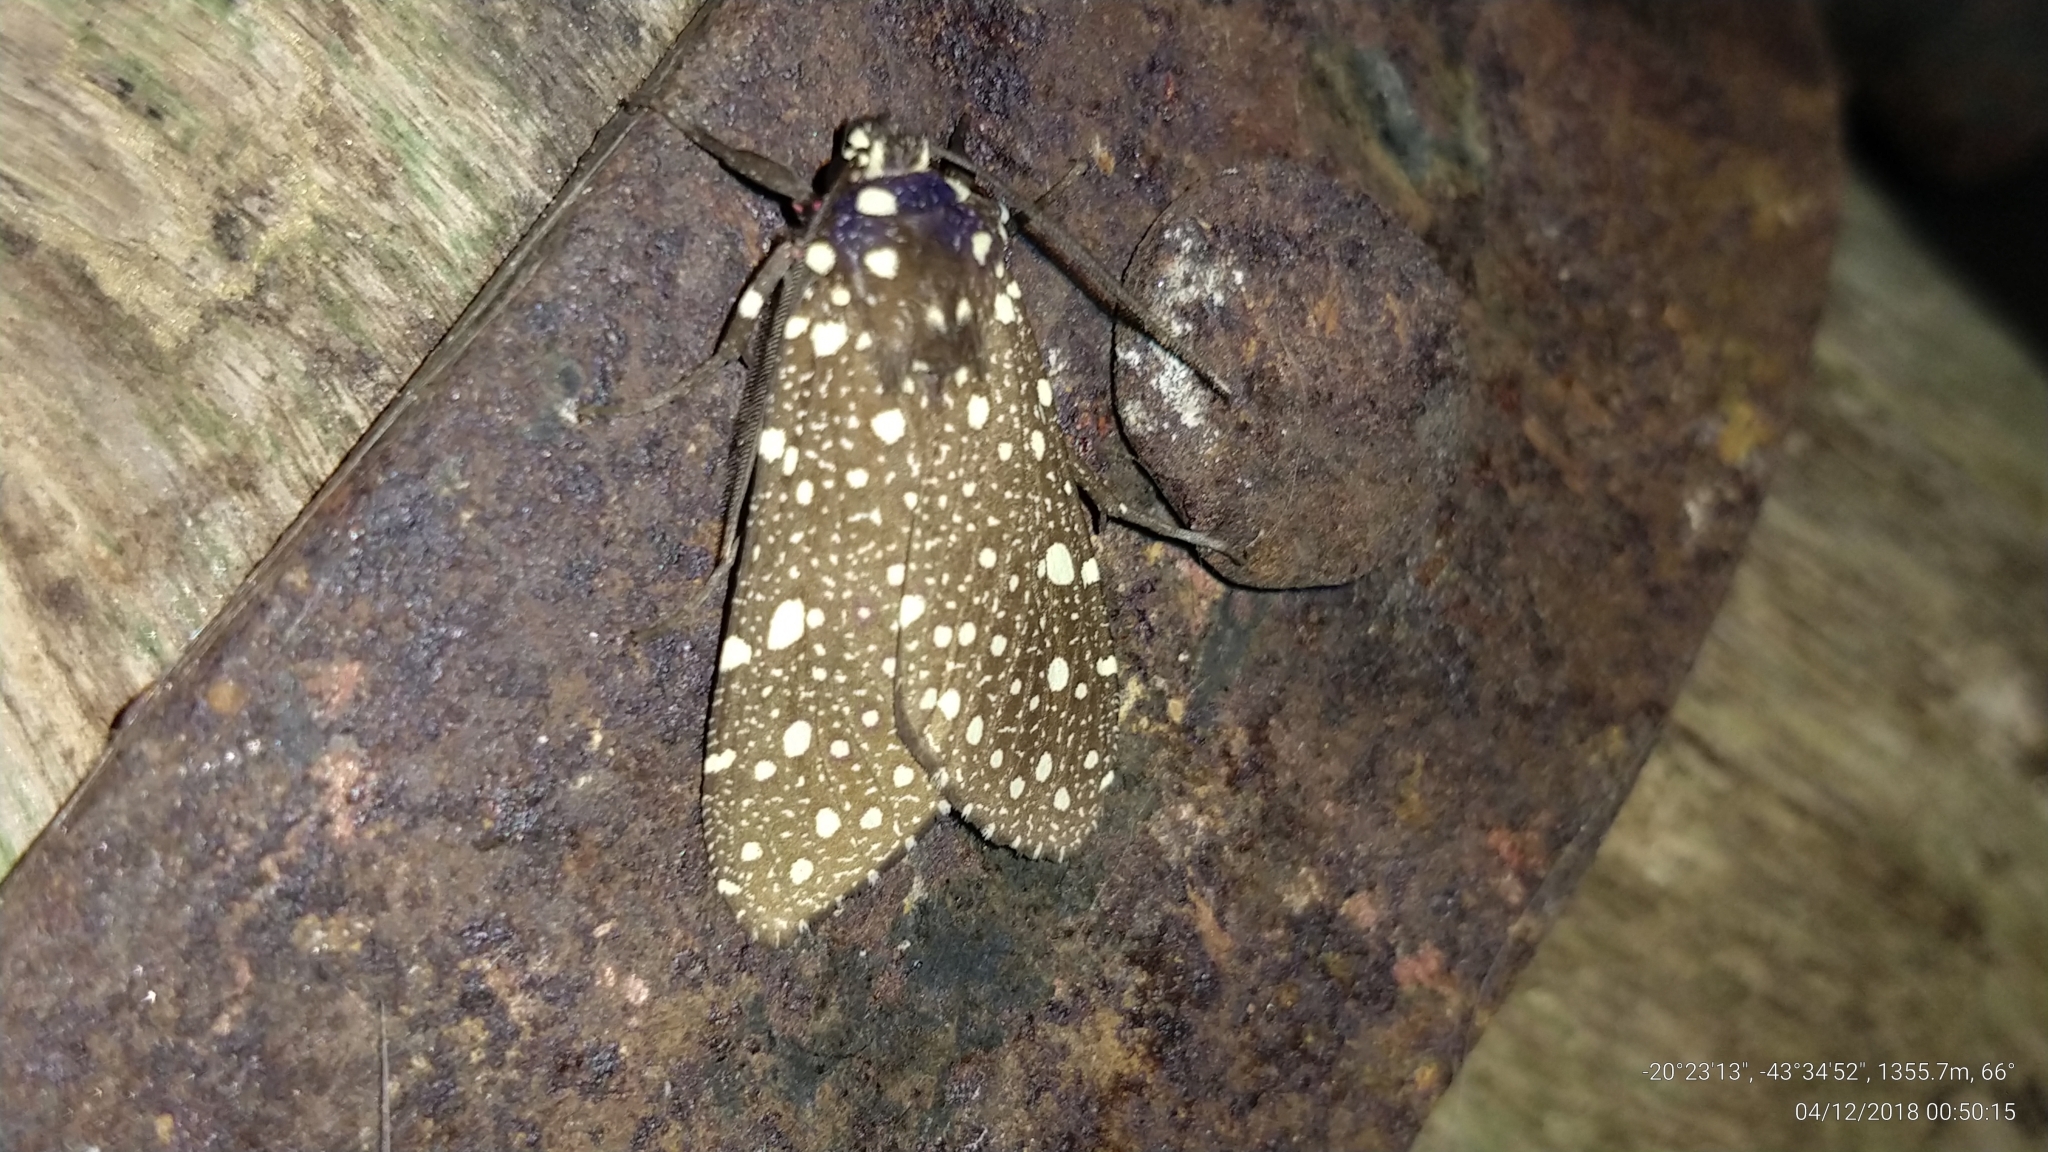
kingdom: Animalia
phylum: Arthropoda
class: Insecta
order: Lepidoptera
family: Erebidae
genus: Bernathonomus
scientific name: Bernathonomus piperita
